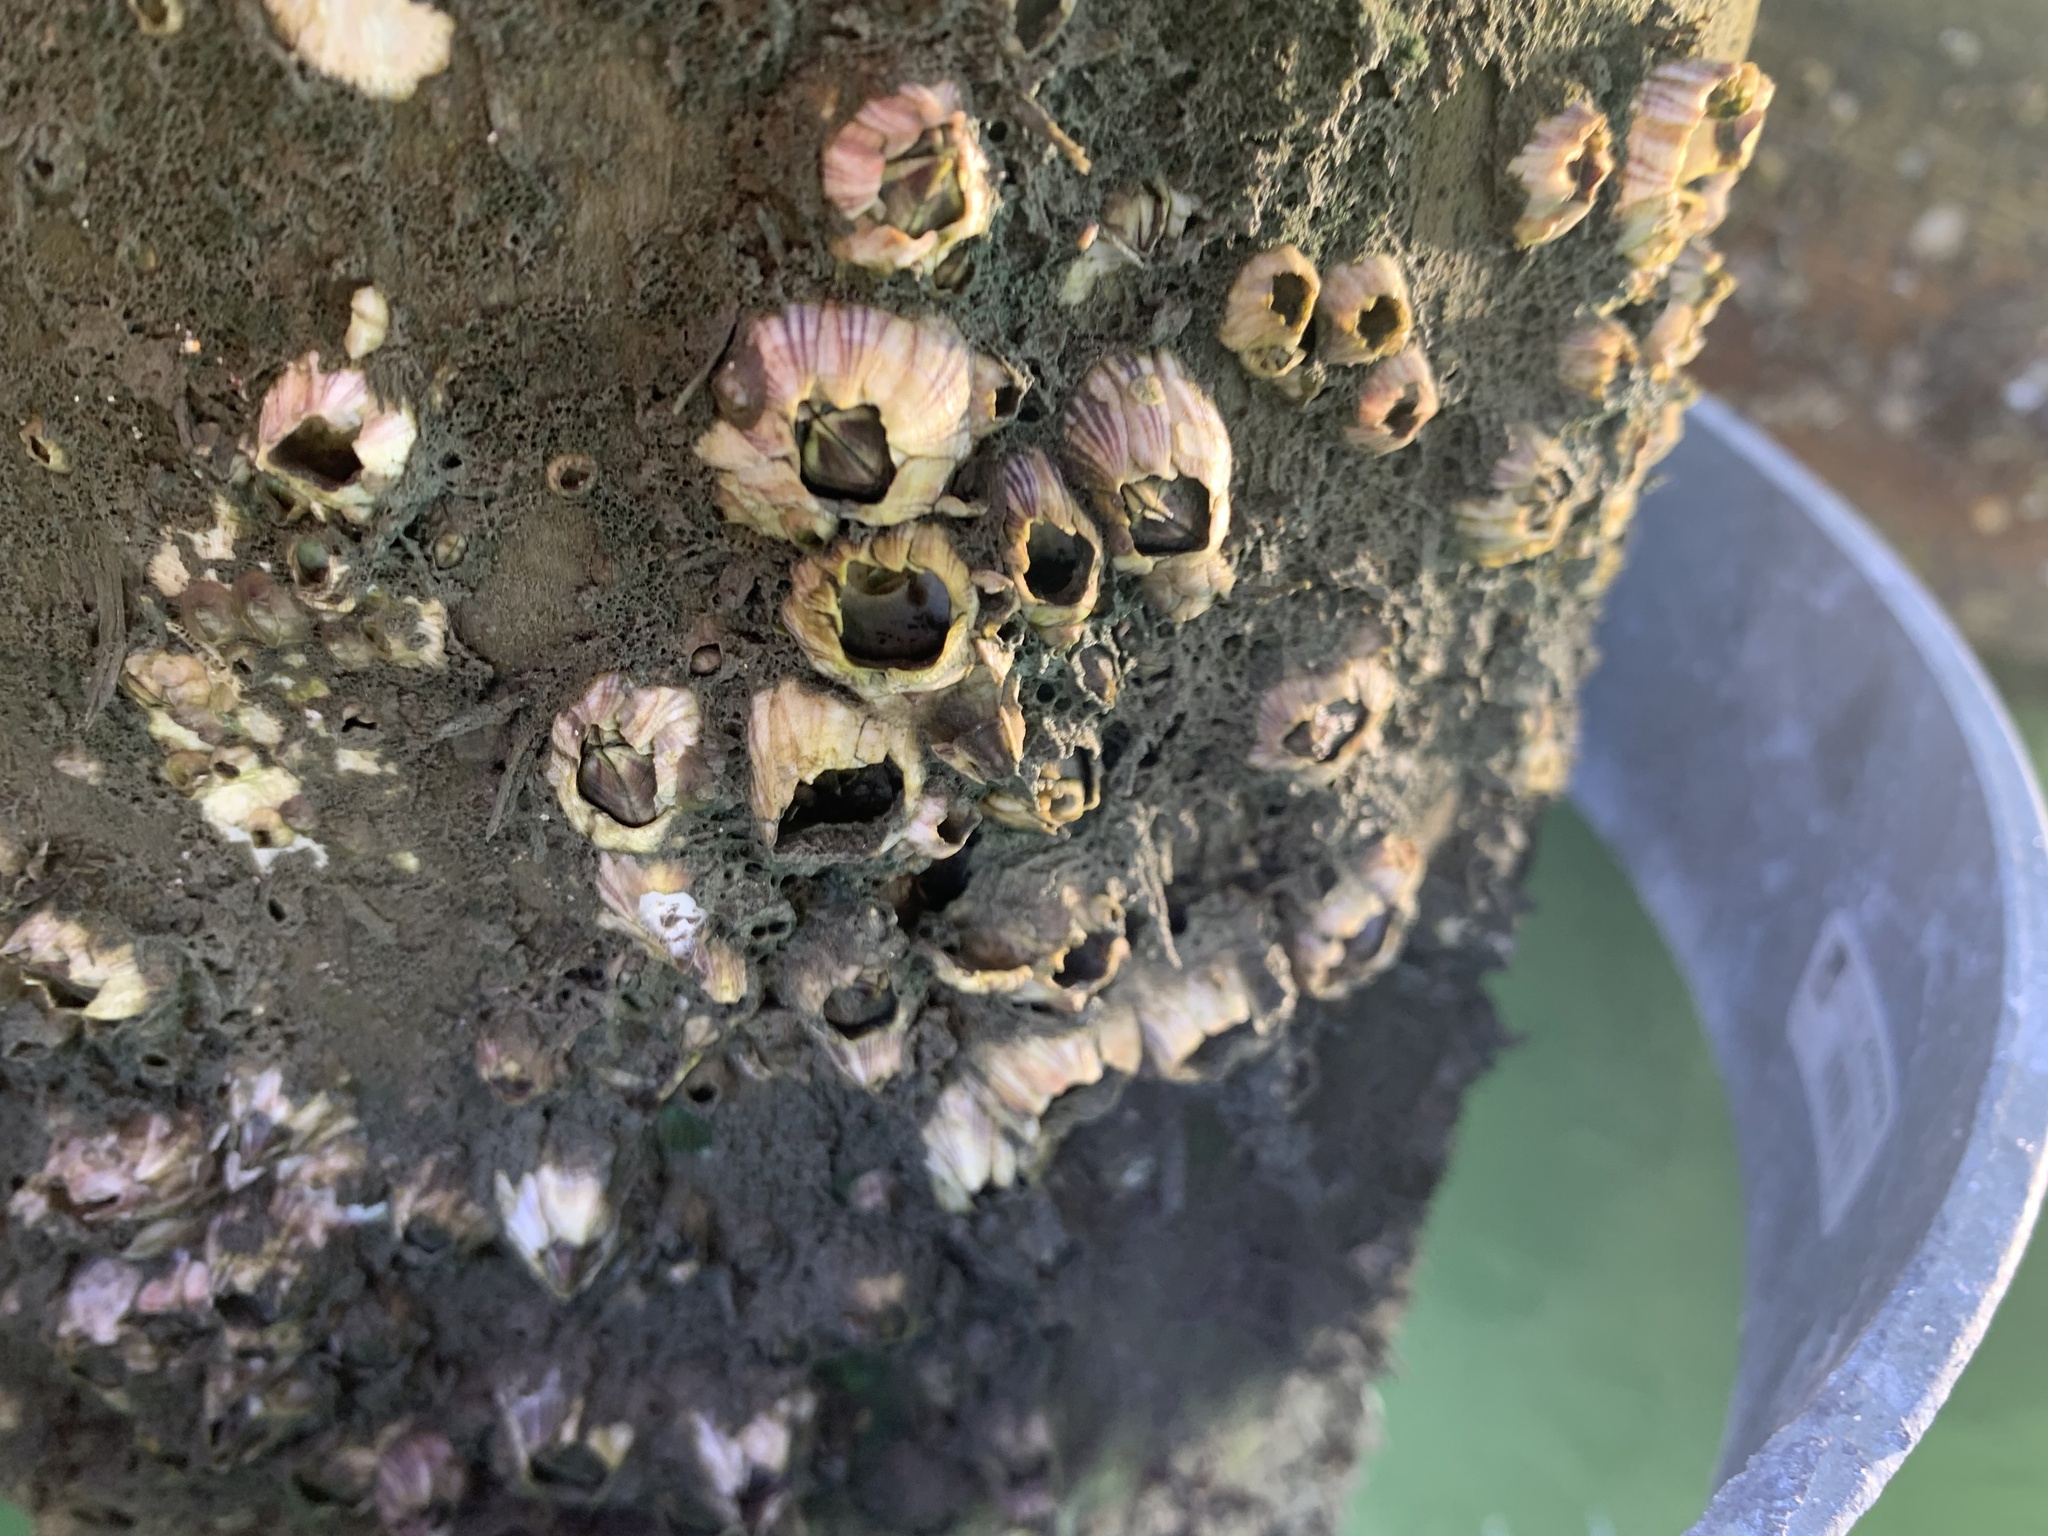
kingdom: Animalia
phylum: Arthropoda
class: Maxillopoda
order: Sessilia
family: Balanidae
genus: Amphibalanus
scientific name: Amphibalanus amphitrite
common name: Striped acorn barnacle
